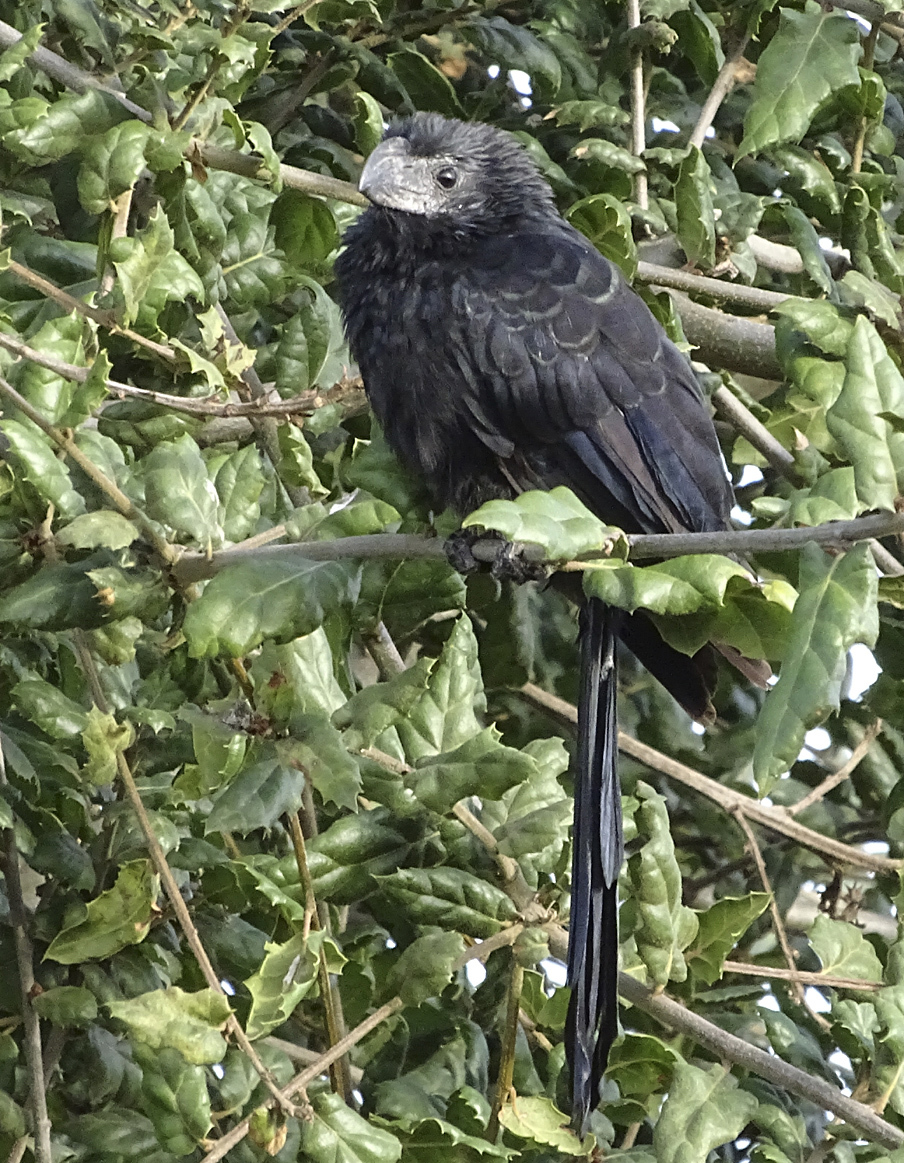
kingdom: Animalia
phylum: Chordata
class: Aves
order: Cuculiformes
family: Cuculidae
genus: Crotophaga
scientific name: Crotophaga sulcirostris
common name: Groove-billed ani
